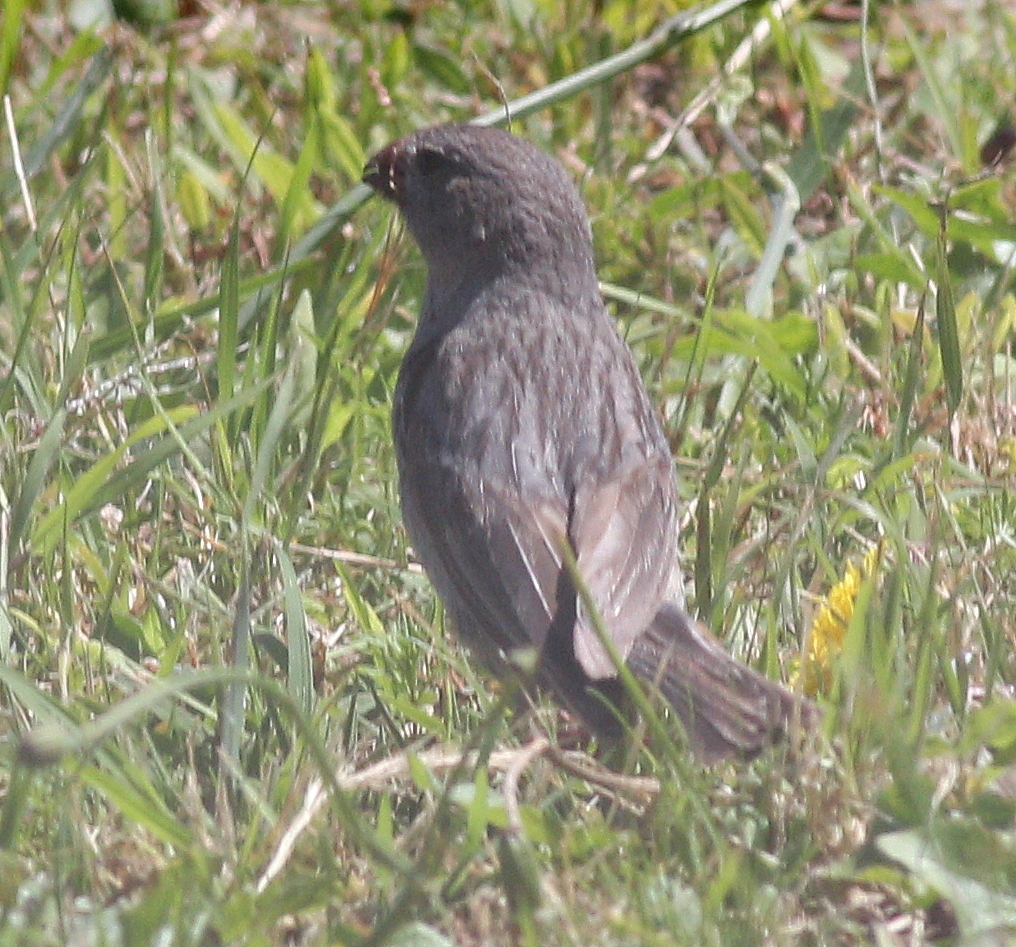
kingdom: Animalia
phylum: Chordata
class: Aves
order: Passeriformes
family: Thraupidae
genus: Catamenia
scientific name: Catamenia inornata
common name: Plain-colored seedeater
